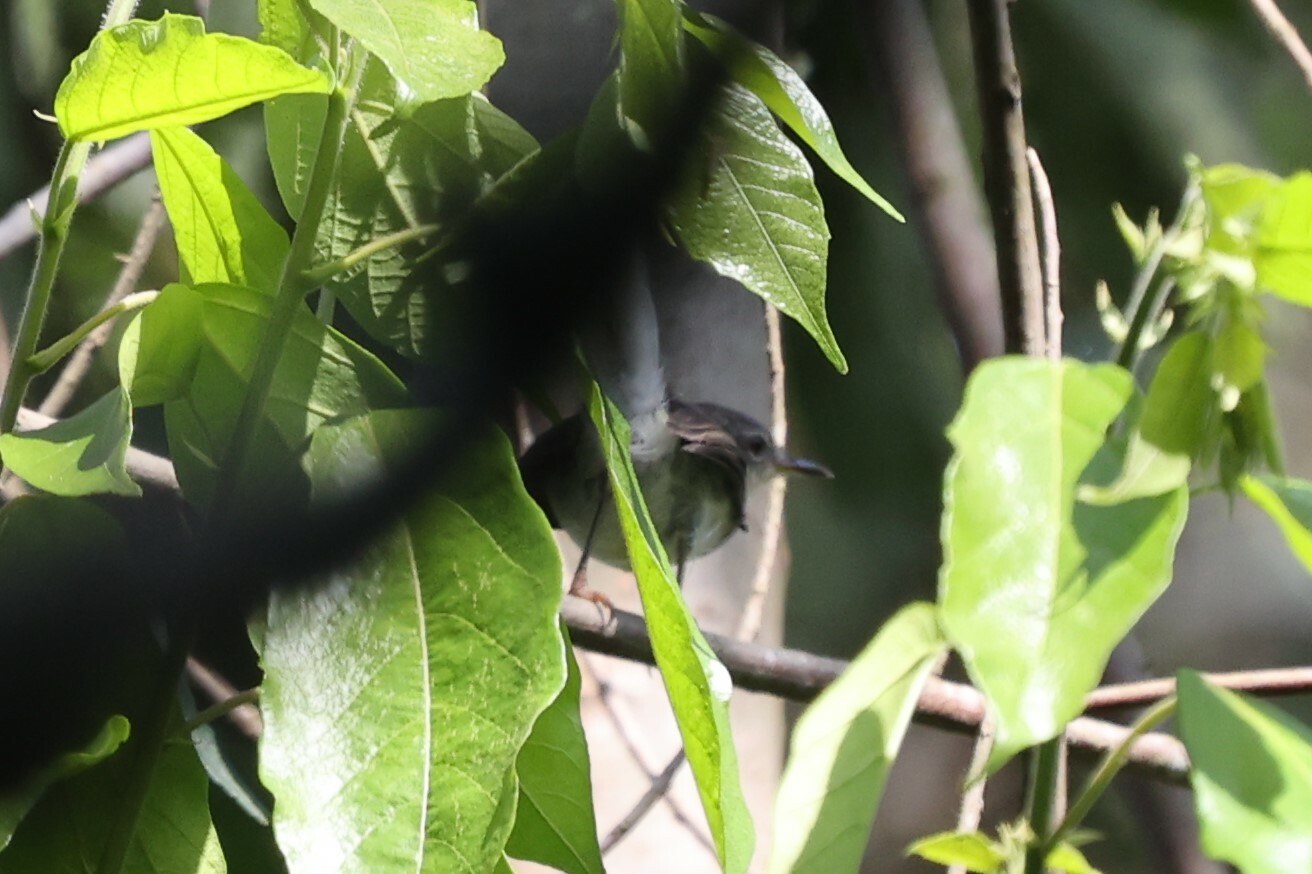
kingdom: Animalia
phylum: Chordata
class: Aves
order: Passeriformes
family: Muscicapidae
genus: Myioparus
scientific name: Myioparus plumbeus
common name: Grey tit-flycatcher
